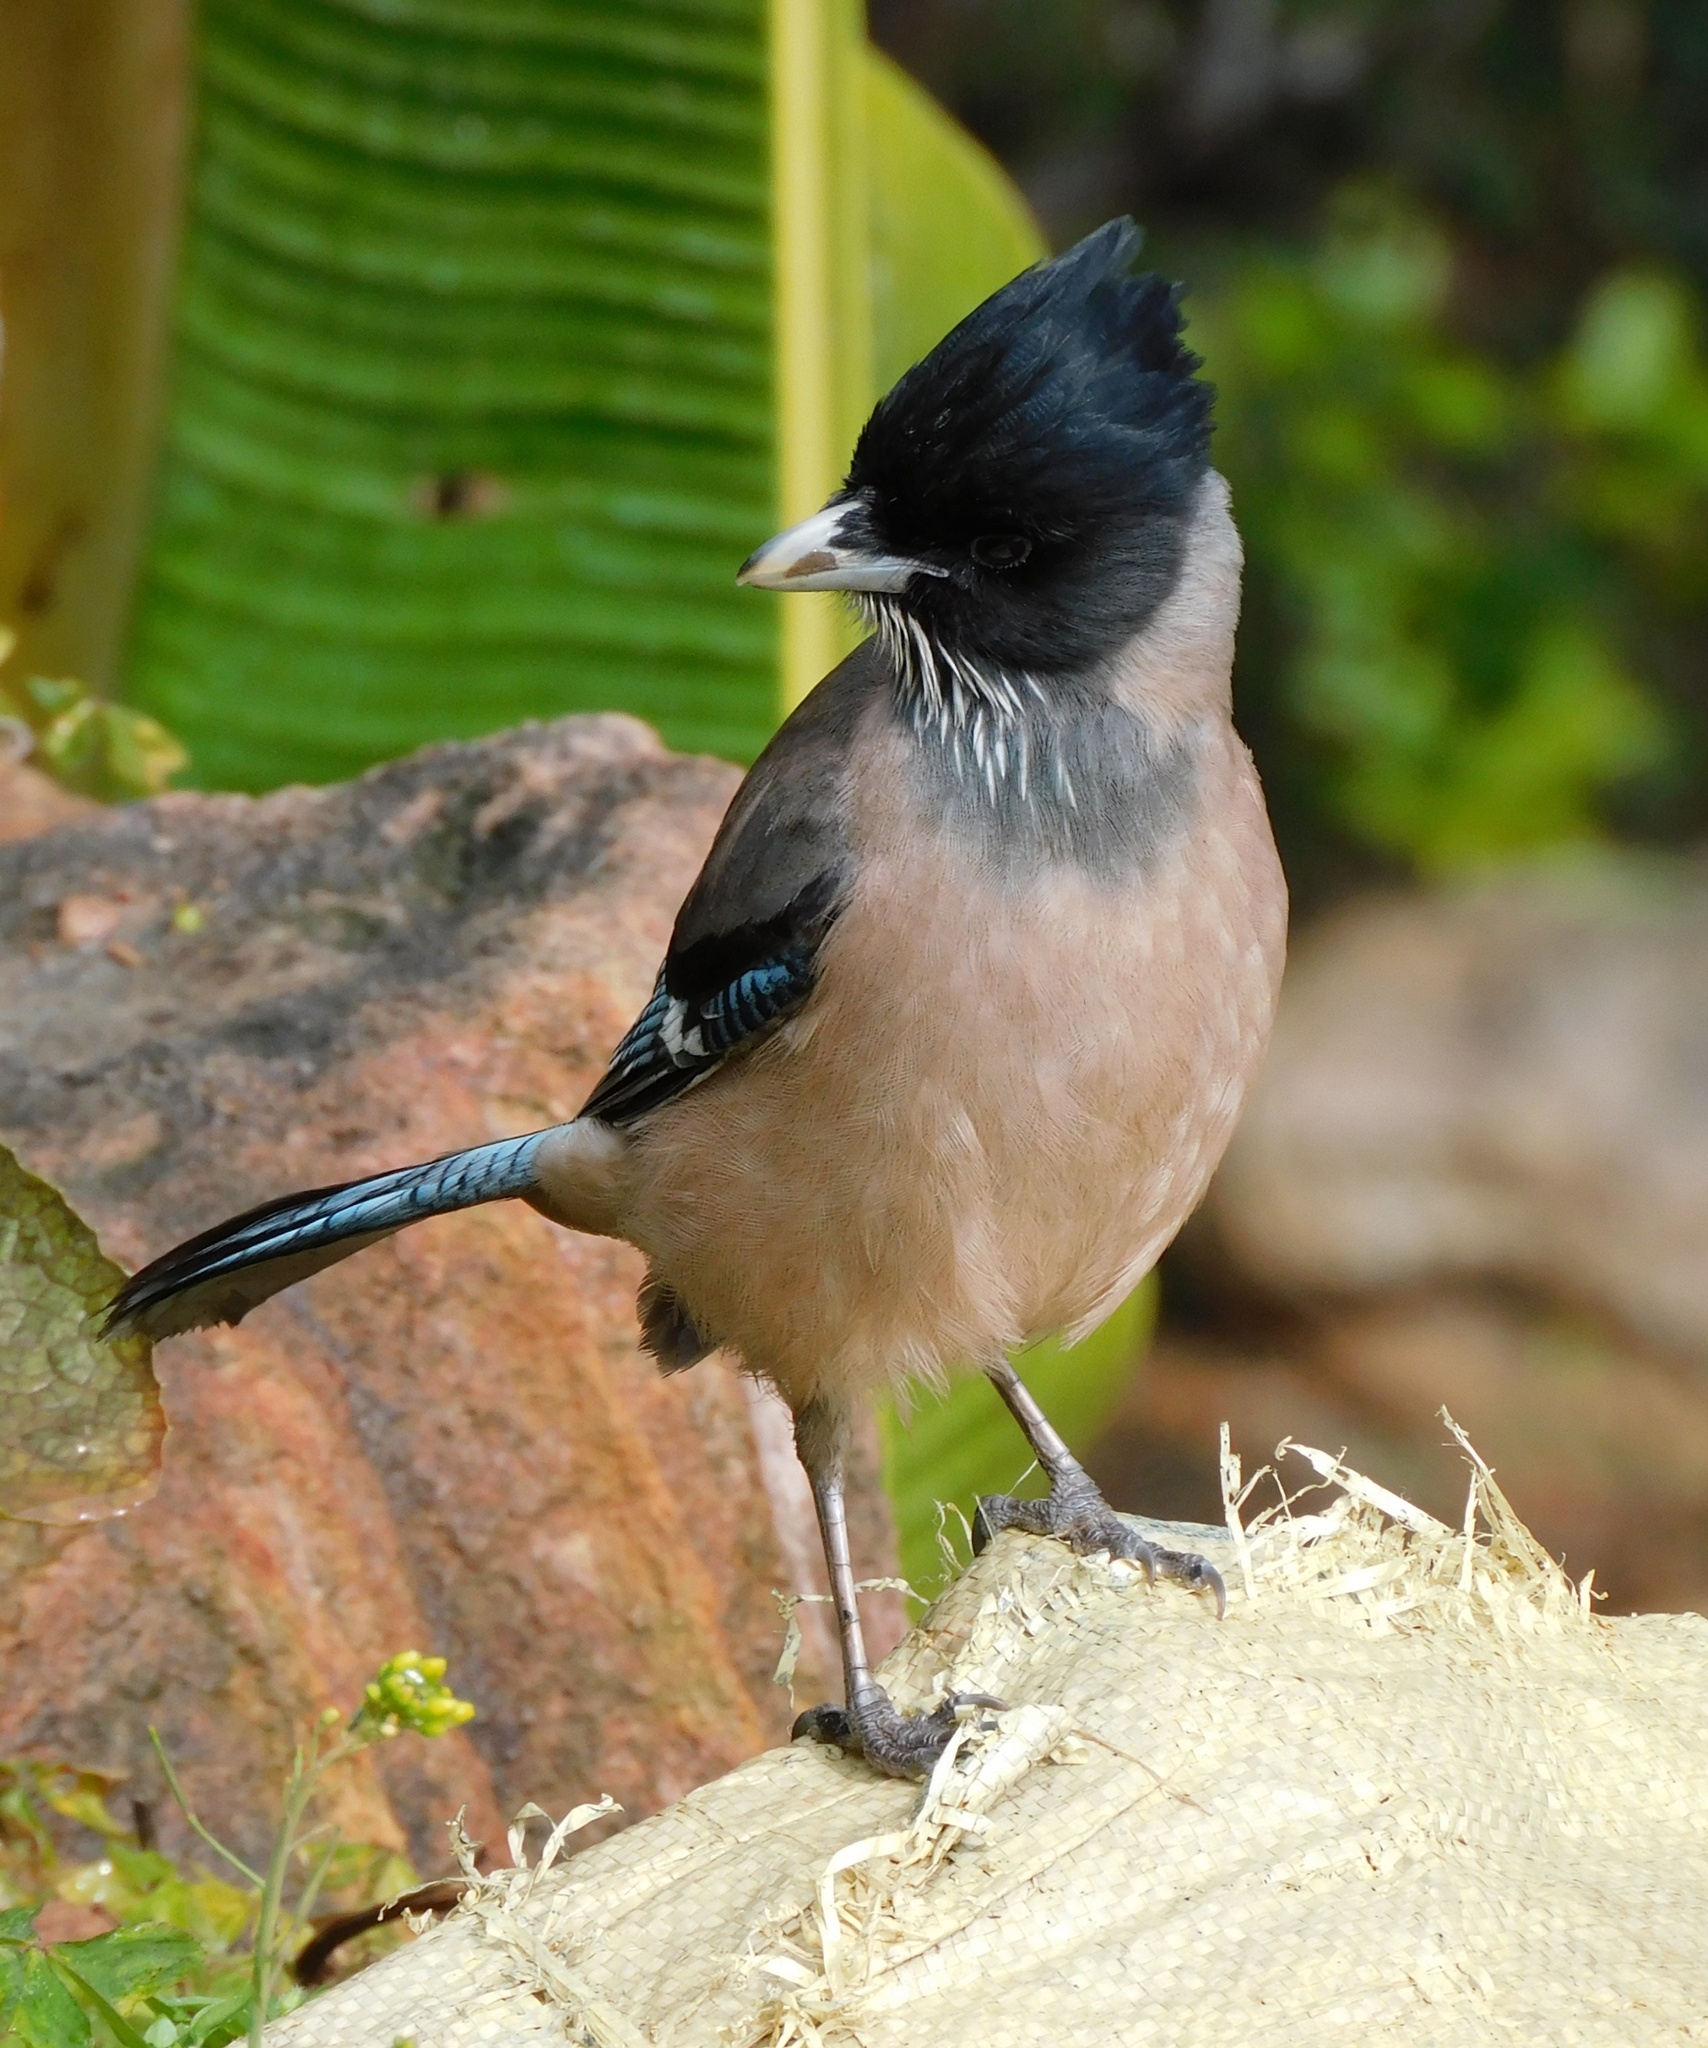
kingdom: Animalia
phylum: Chordata
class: Aves
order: Passeriformes
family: Corvidae
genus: Garrulus
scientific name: Garrulus lanceolatus
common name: Black-headed jay
